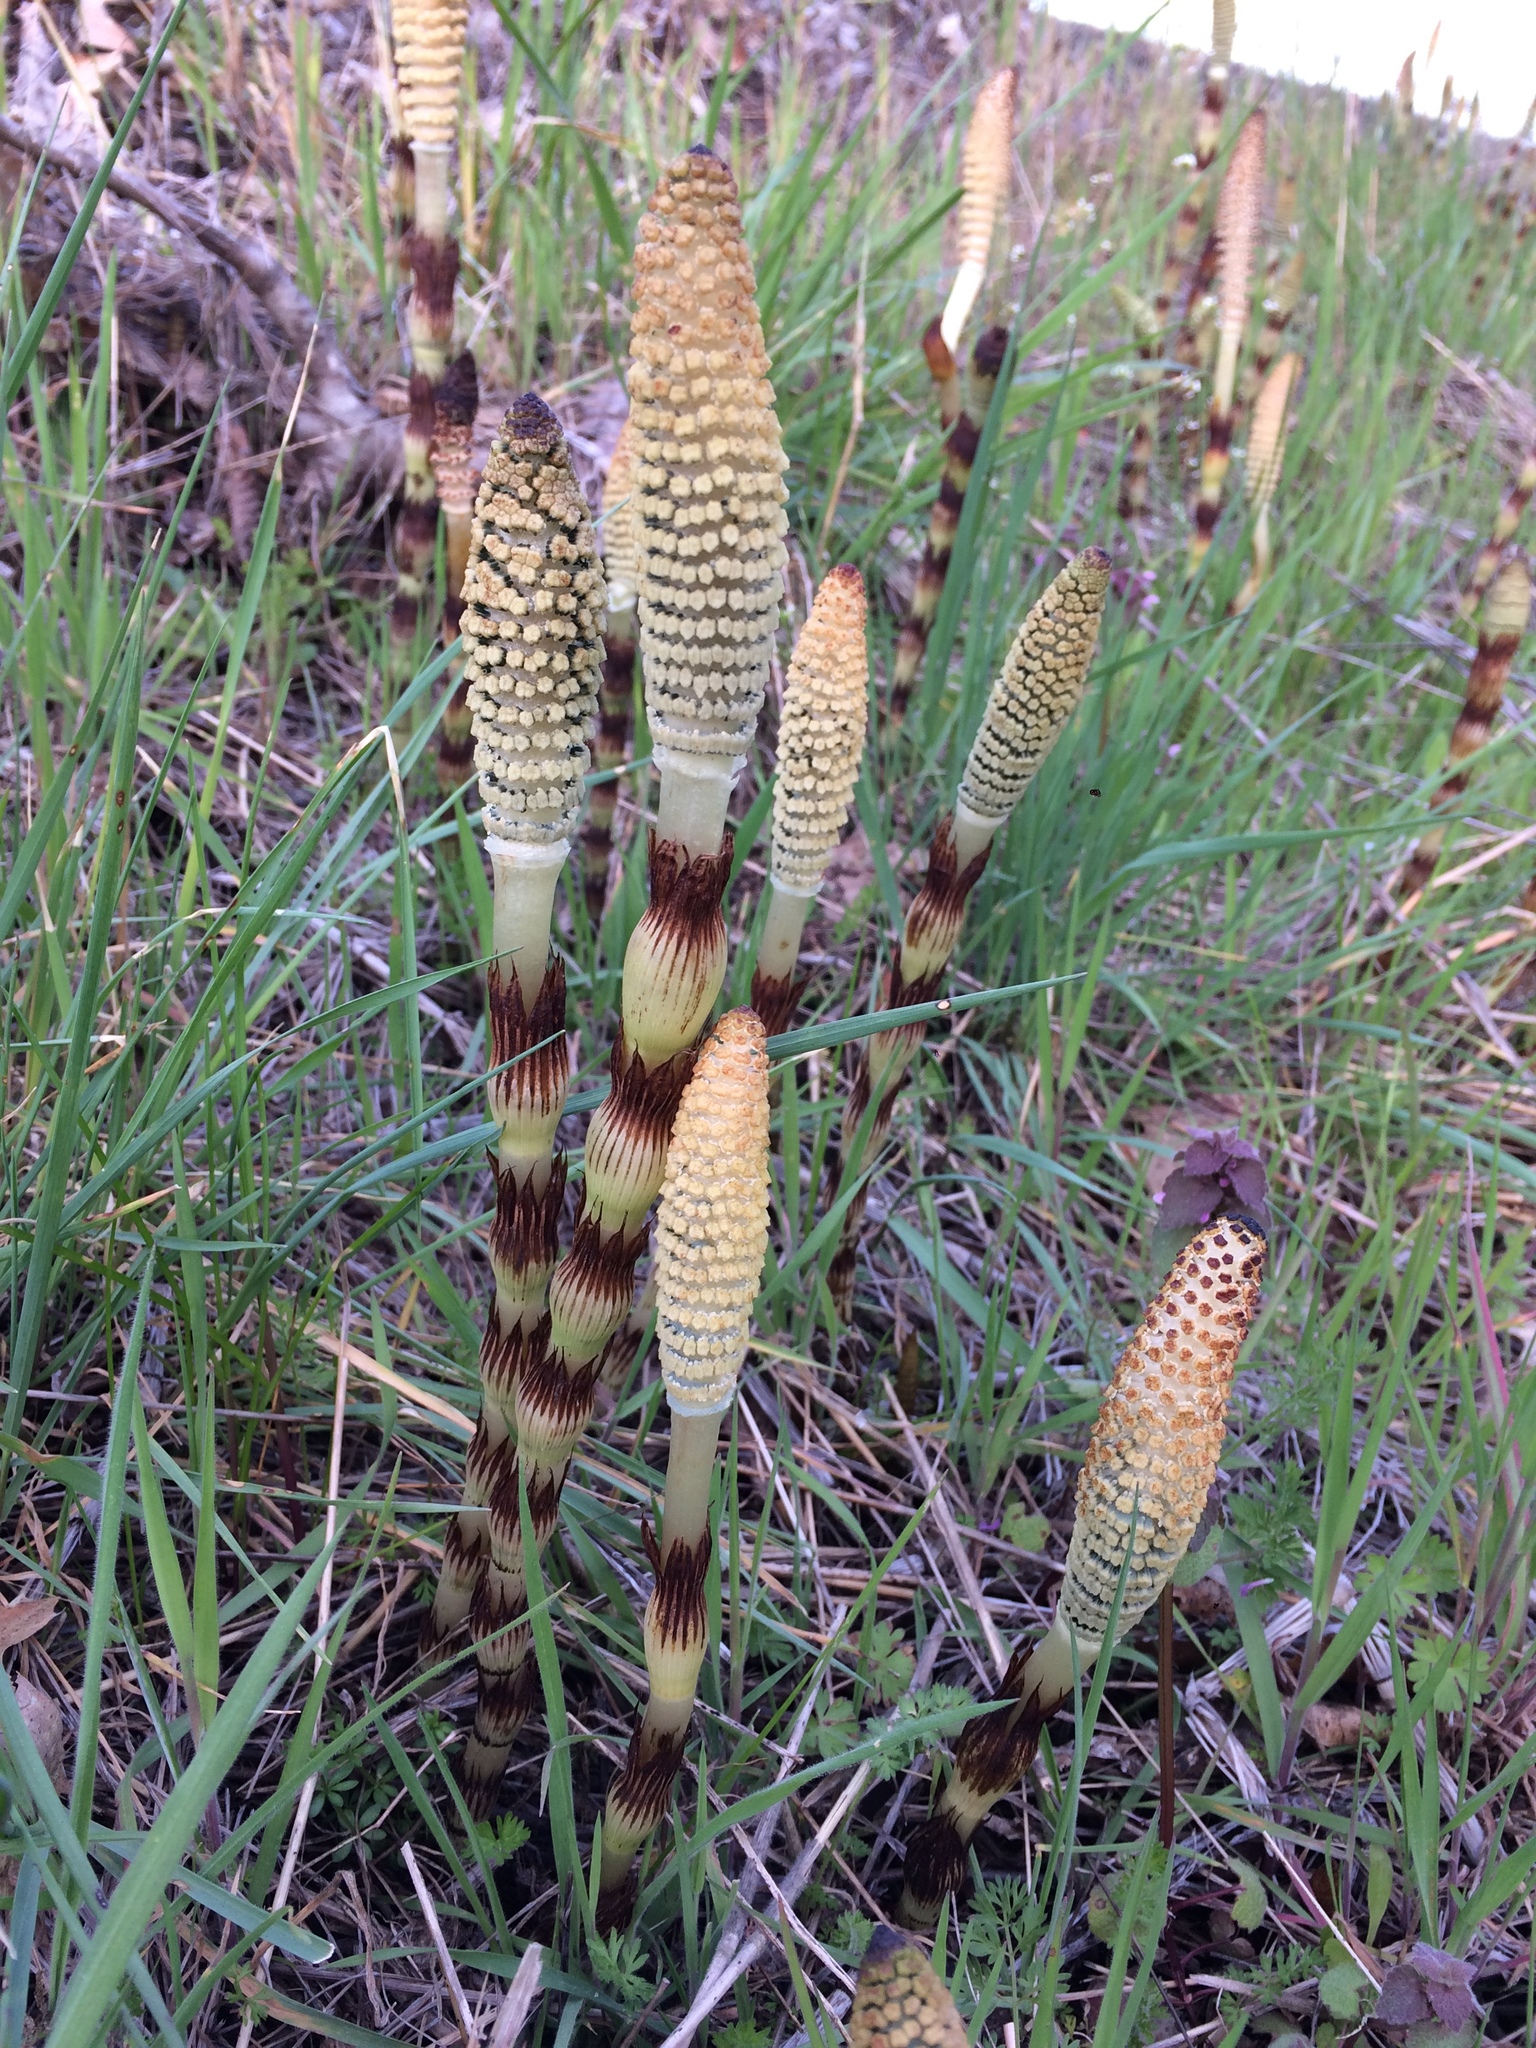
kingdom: Plantae
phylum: Tracheophyta
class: Polypodiopsida
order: Equisetales
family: Equisetaceae
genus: Equisetum
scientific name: Equisetum braunii
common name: Braun's horsetail
